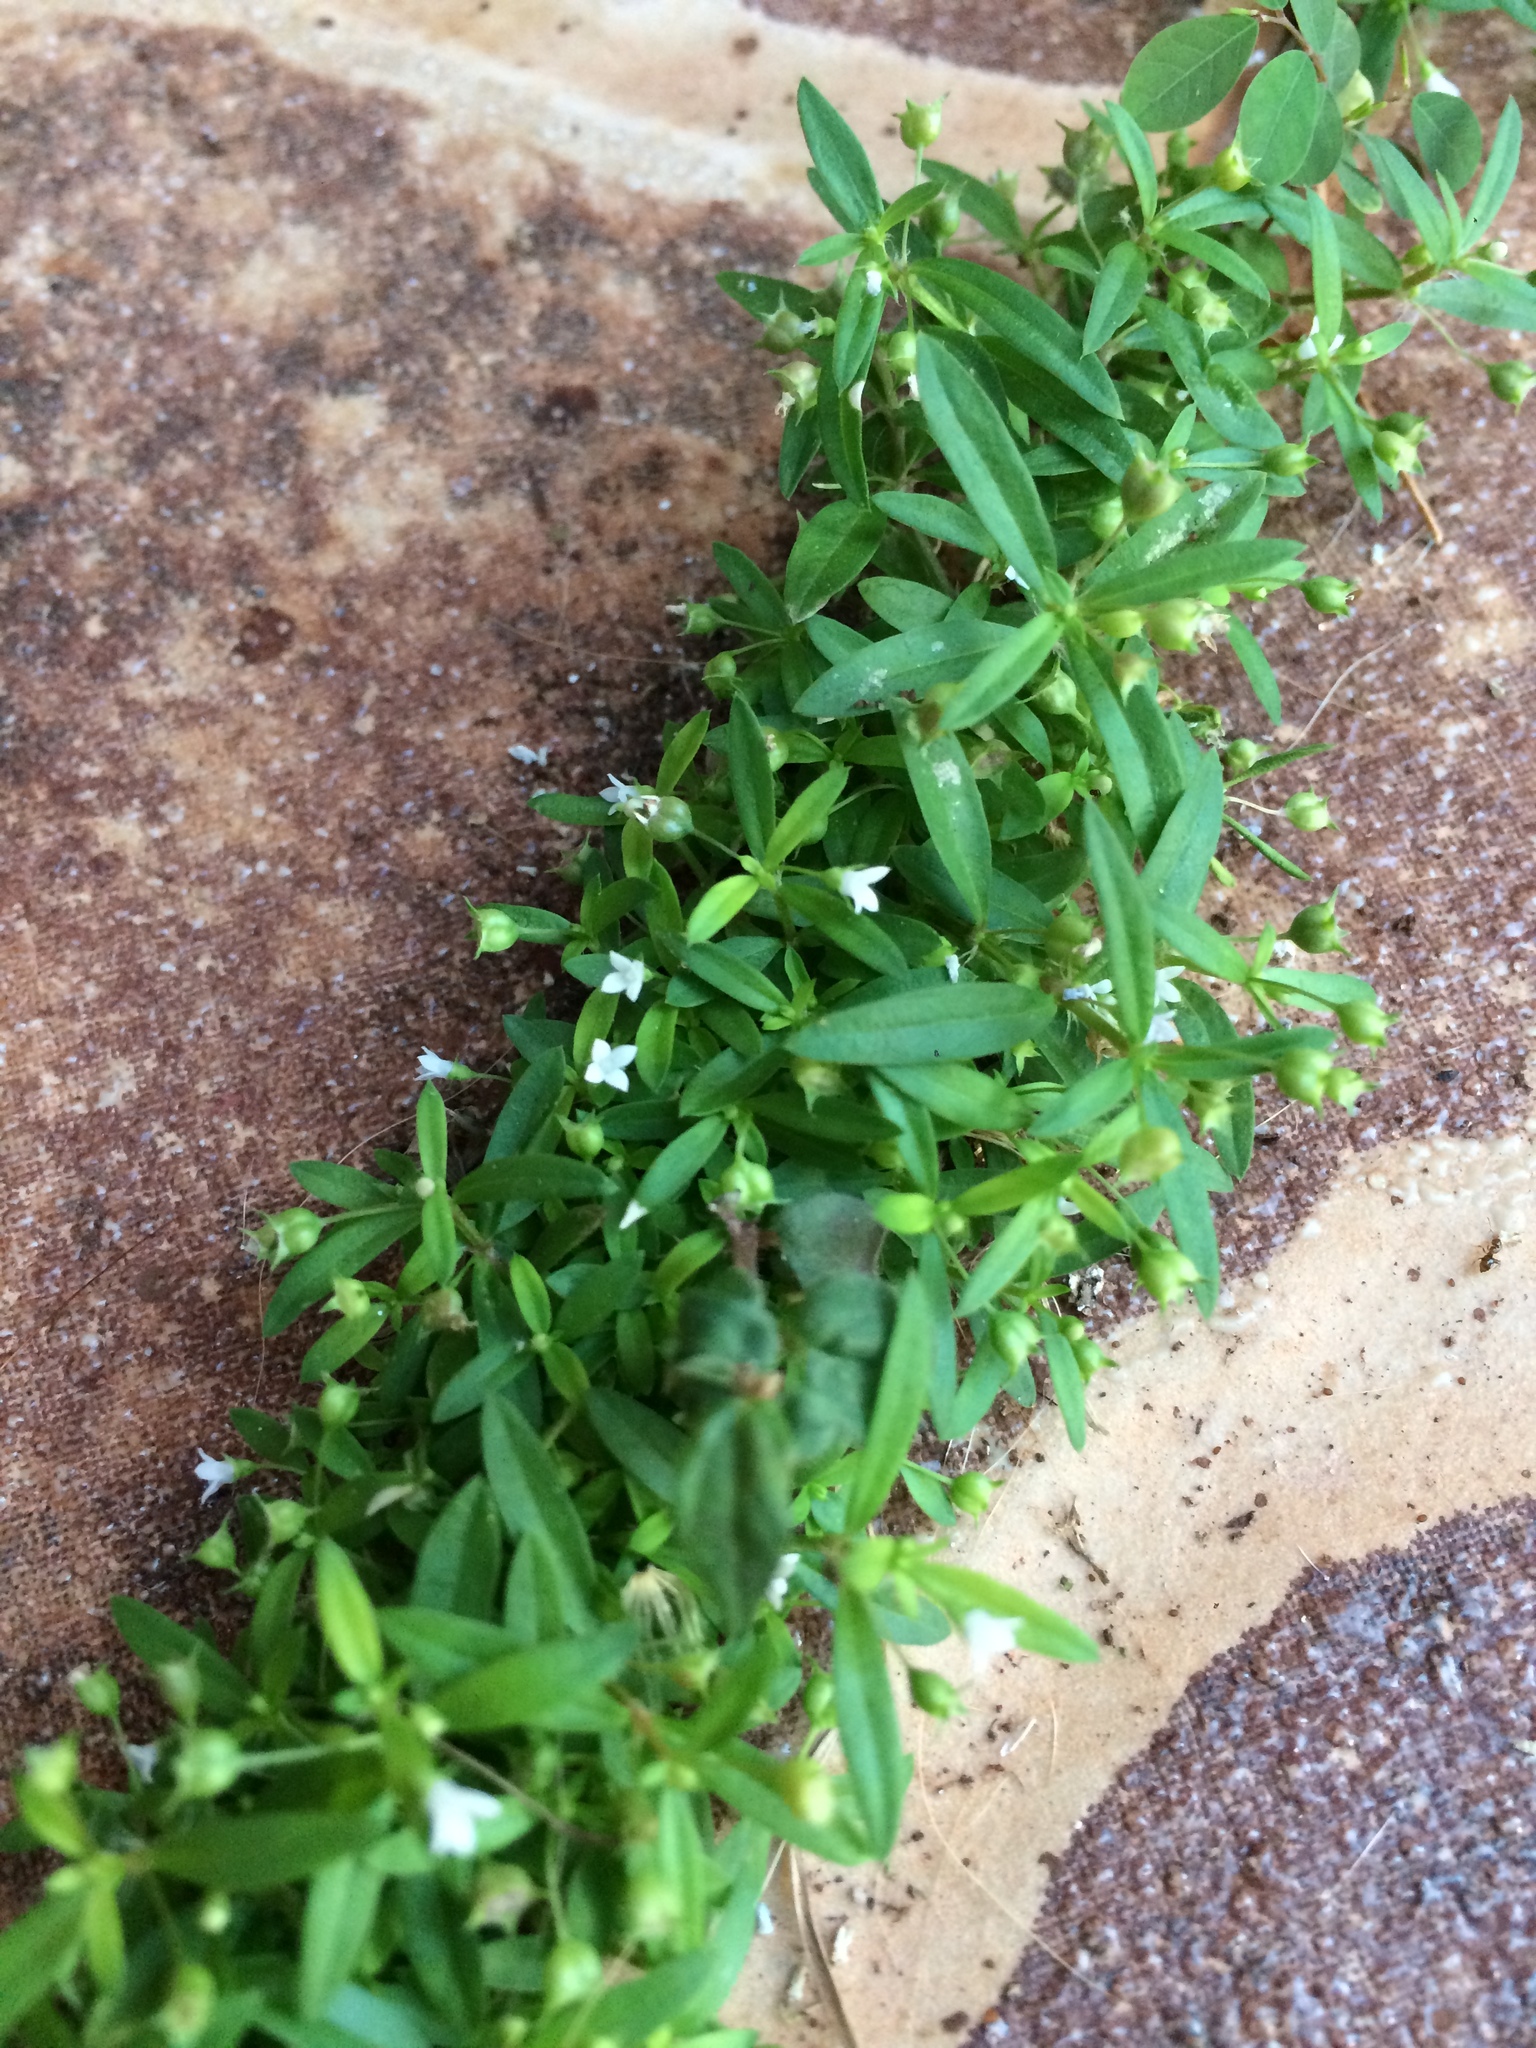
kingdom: Plantae
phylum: Tracheophyta
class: Magnoliopsida
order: Gentianales
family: Rubiaceae
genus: Oldenlandia
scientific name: Oldenlandia corymbosa
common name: Flat-top mille graines
